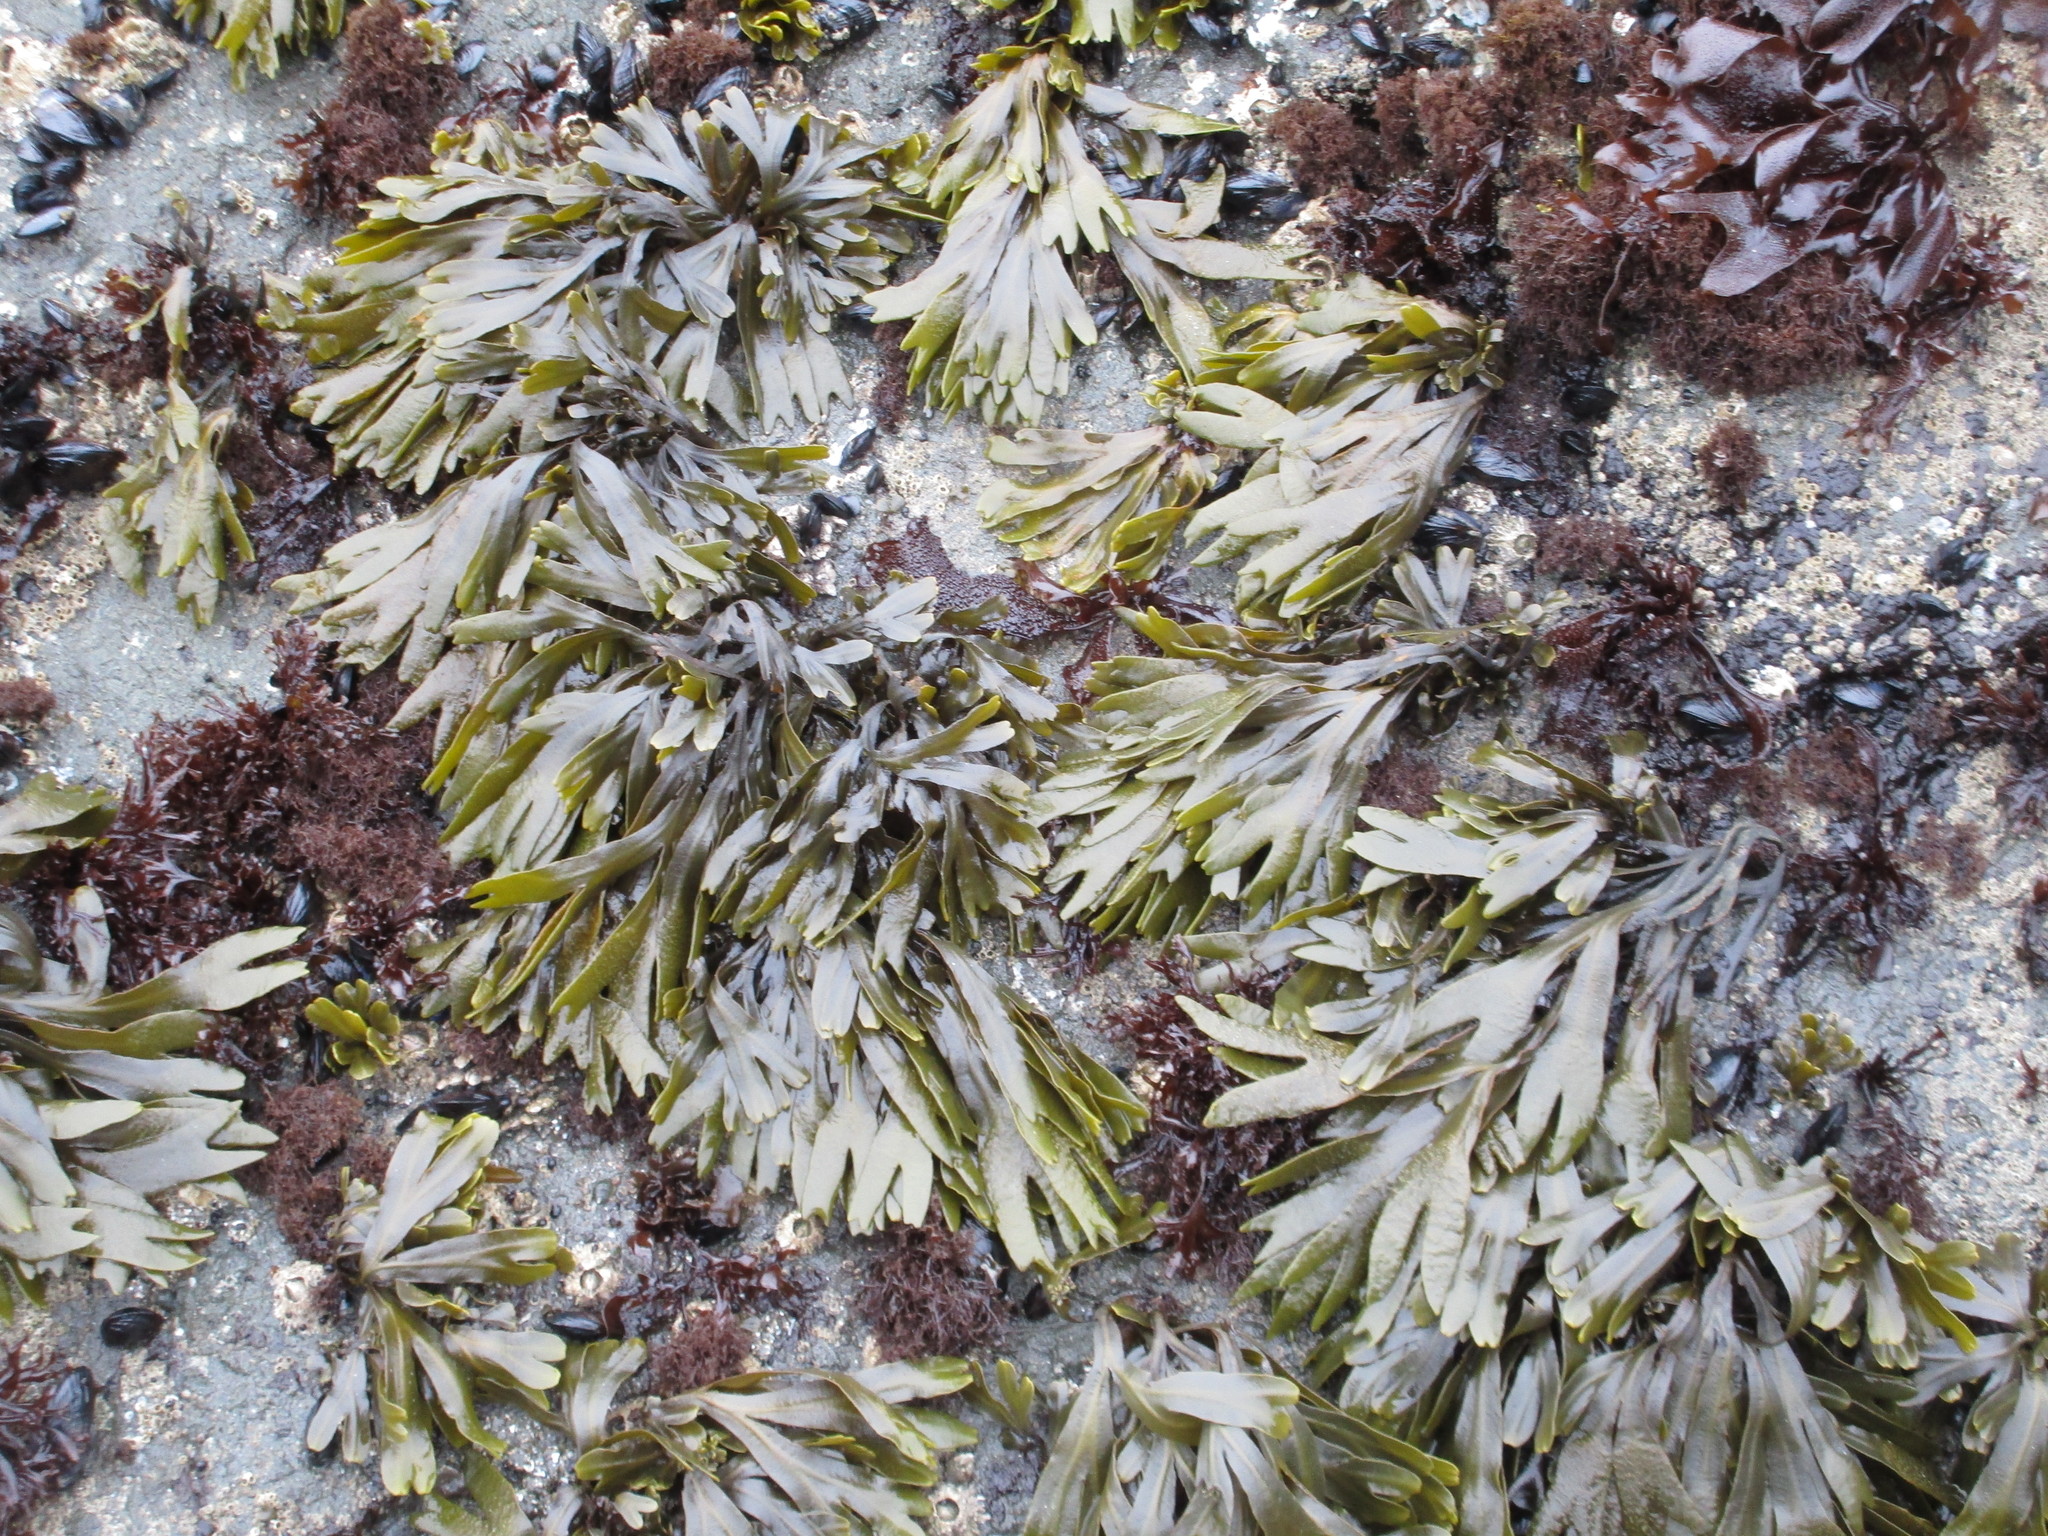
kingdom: Chromista
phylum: Ochrophyta
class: Phaeophyceae
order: Fucales
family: Fucaceae
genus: Fucus
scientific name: Fucus distichus
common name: Rockweed
